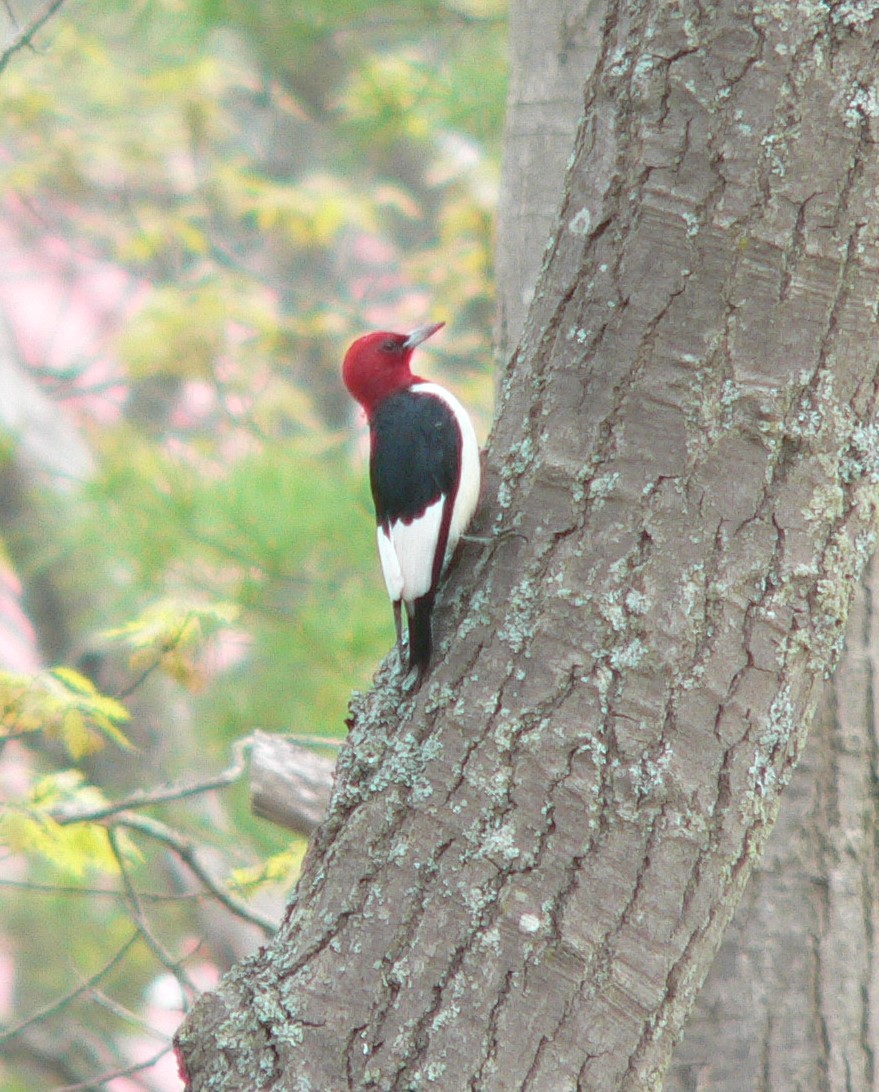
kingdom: Animalia
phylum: Chordata
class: Aves
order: Piciformes
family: Picidae
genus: Melanerpes
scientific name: Melanerpes erythrocephalus
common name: Red-headed woodpecker
